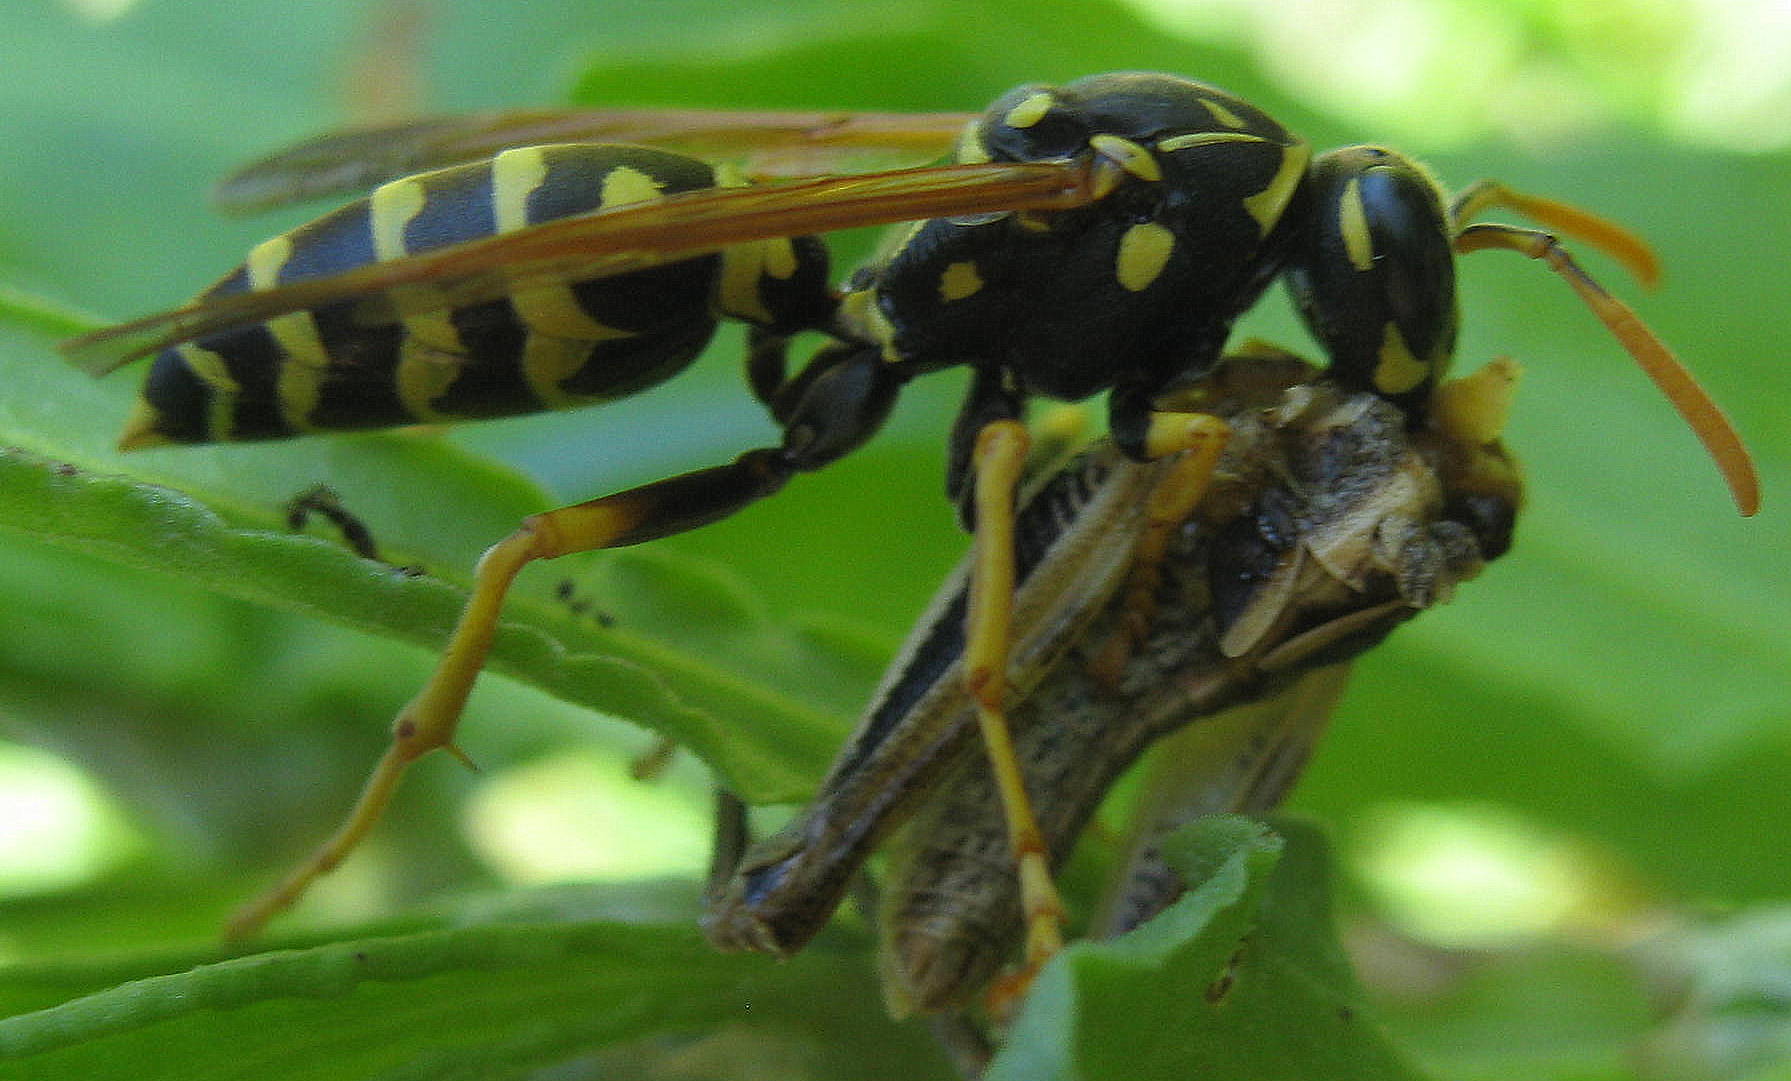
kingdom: Animalia
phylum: Arthropoda
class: Insecta
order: Hymenoptera
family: Eumenidae
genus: Polistes
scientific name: Polistes dominula
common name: Paper wasp
